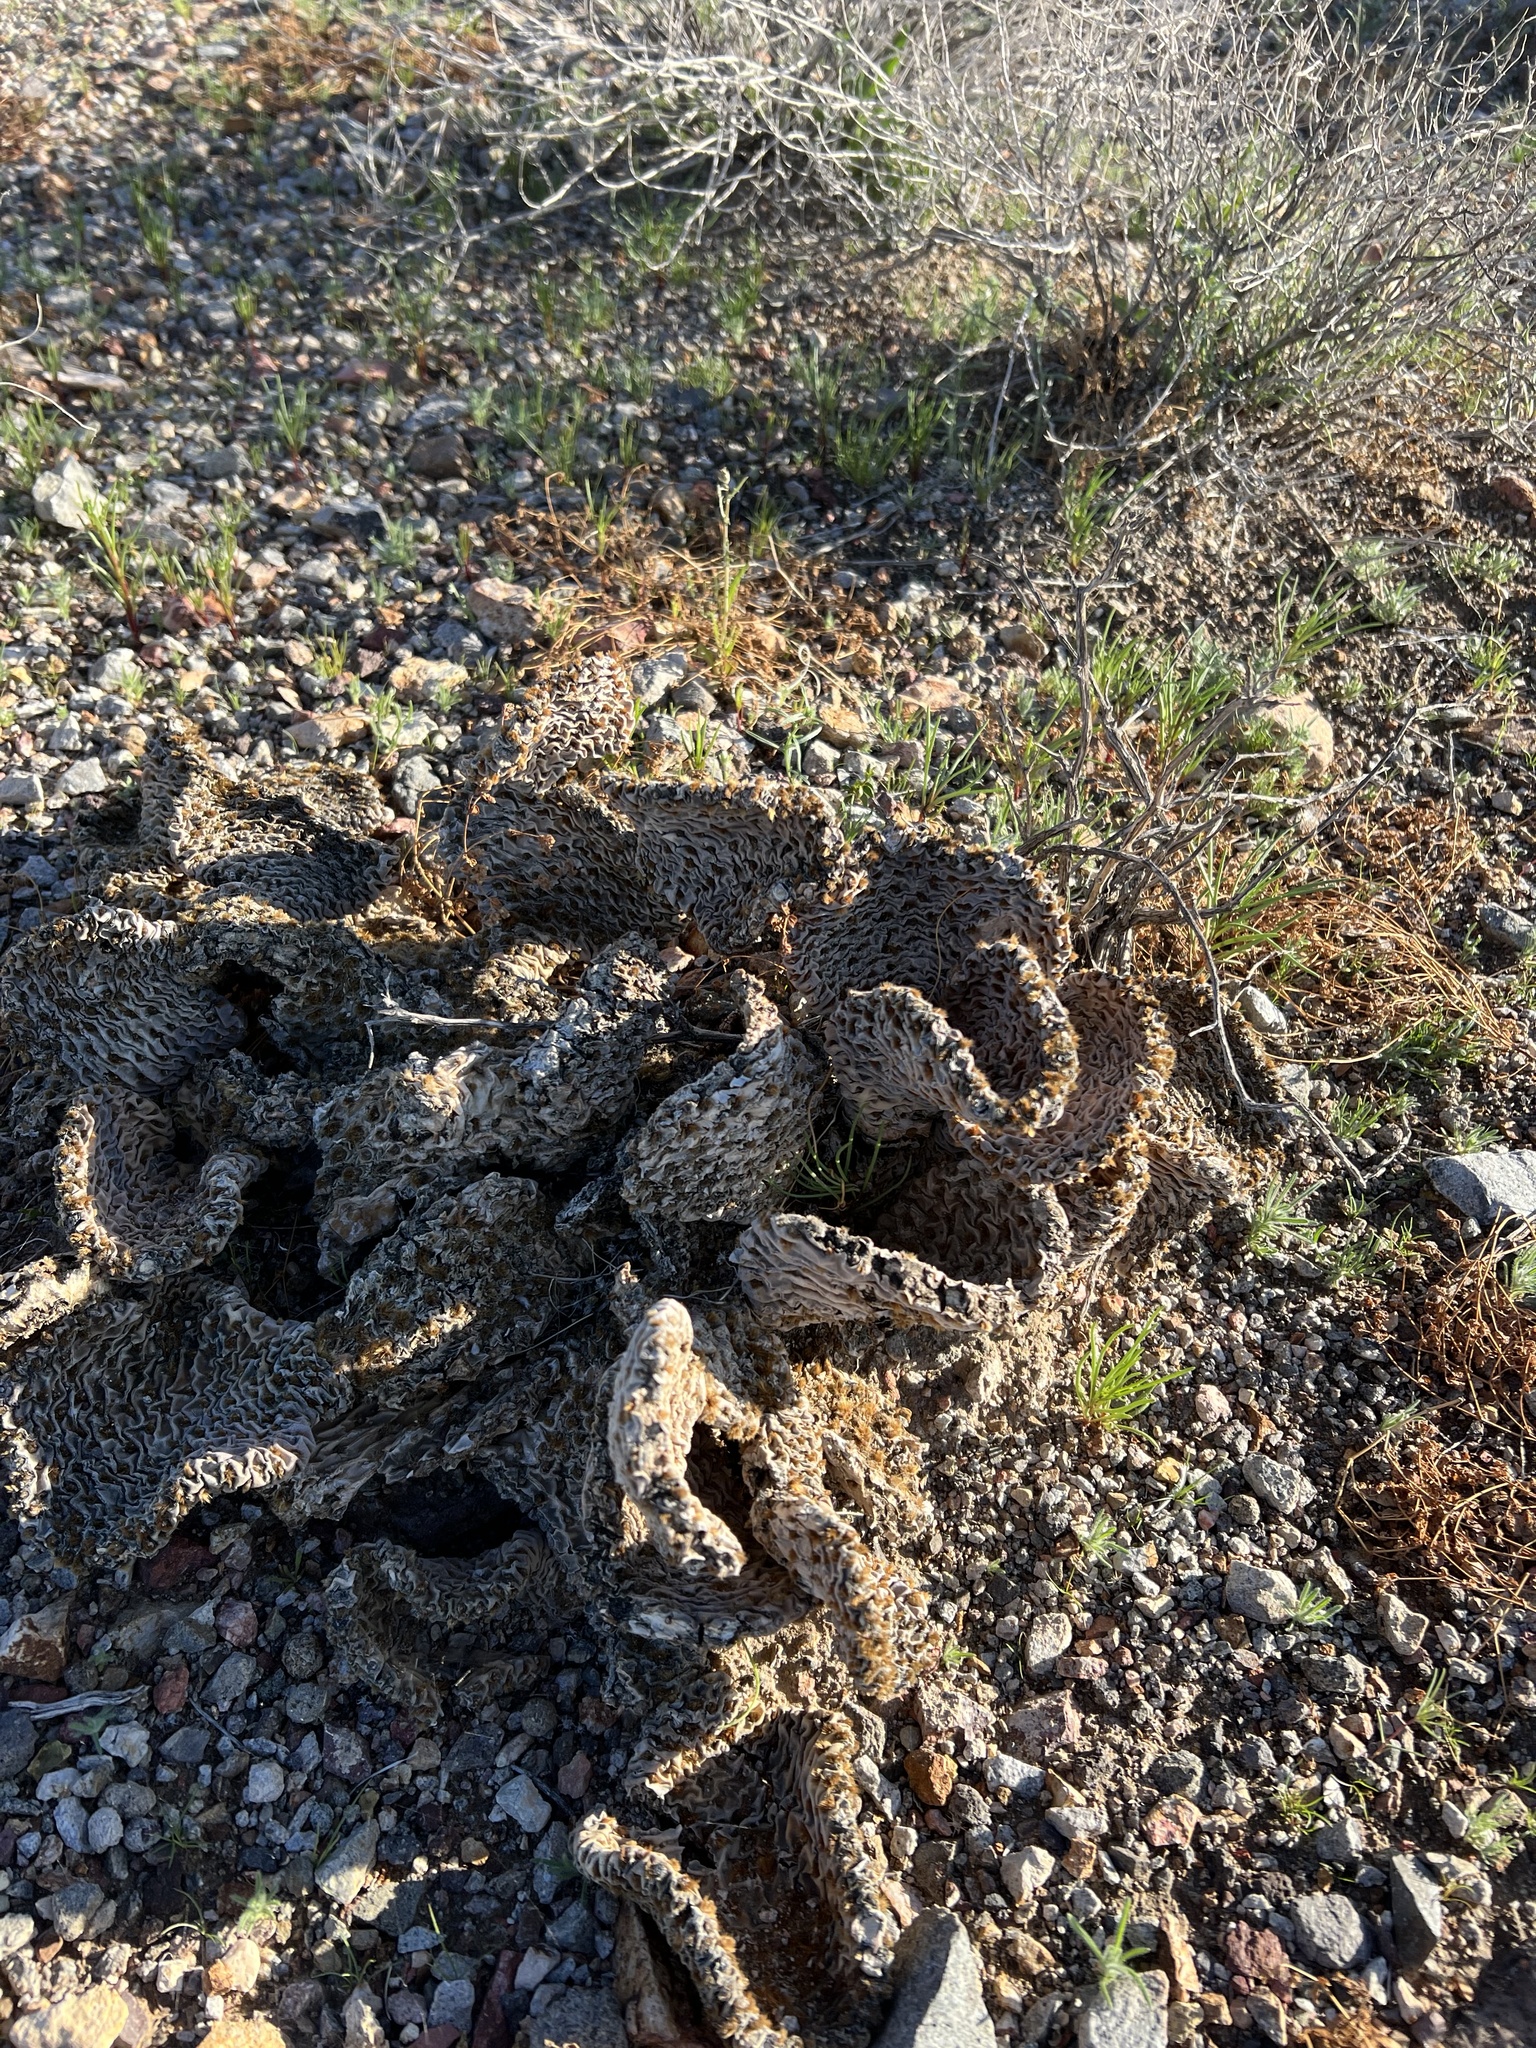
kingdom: Plantae
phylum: Tracheophyta
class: Magnoliopsida
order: Caryophyllales
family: Cactaceae
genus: Opuntia
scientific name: Opuntia basilaris
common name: Beavertail prickly-pear
